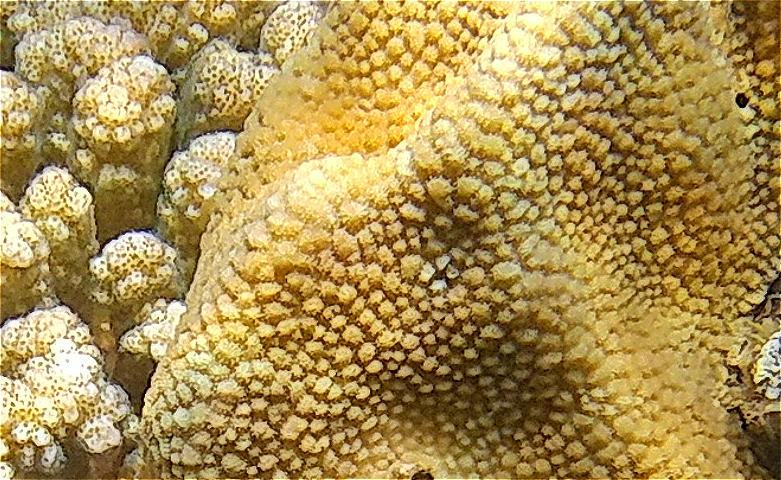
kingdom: Animalia
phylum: Cnidaria
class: Anthozoa
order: Scleractinia
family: Merulinidae
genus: Hydnophora
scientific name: Hydnophora microconos
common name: Spine coral
